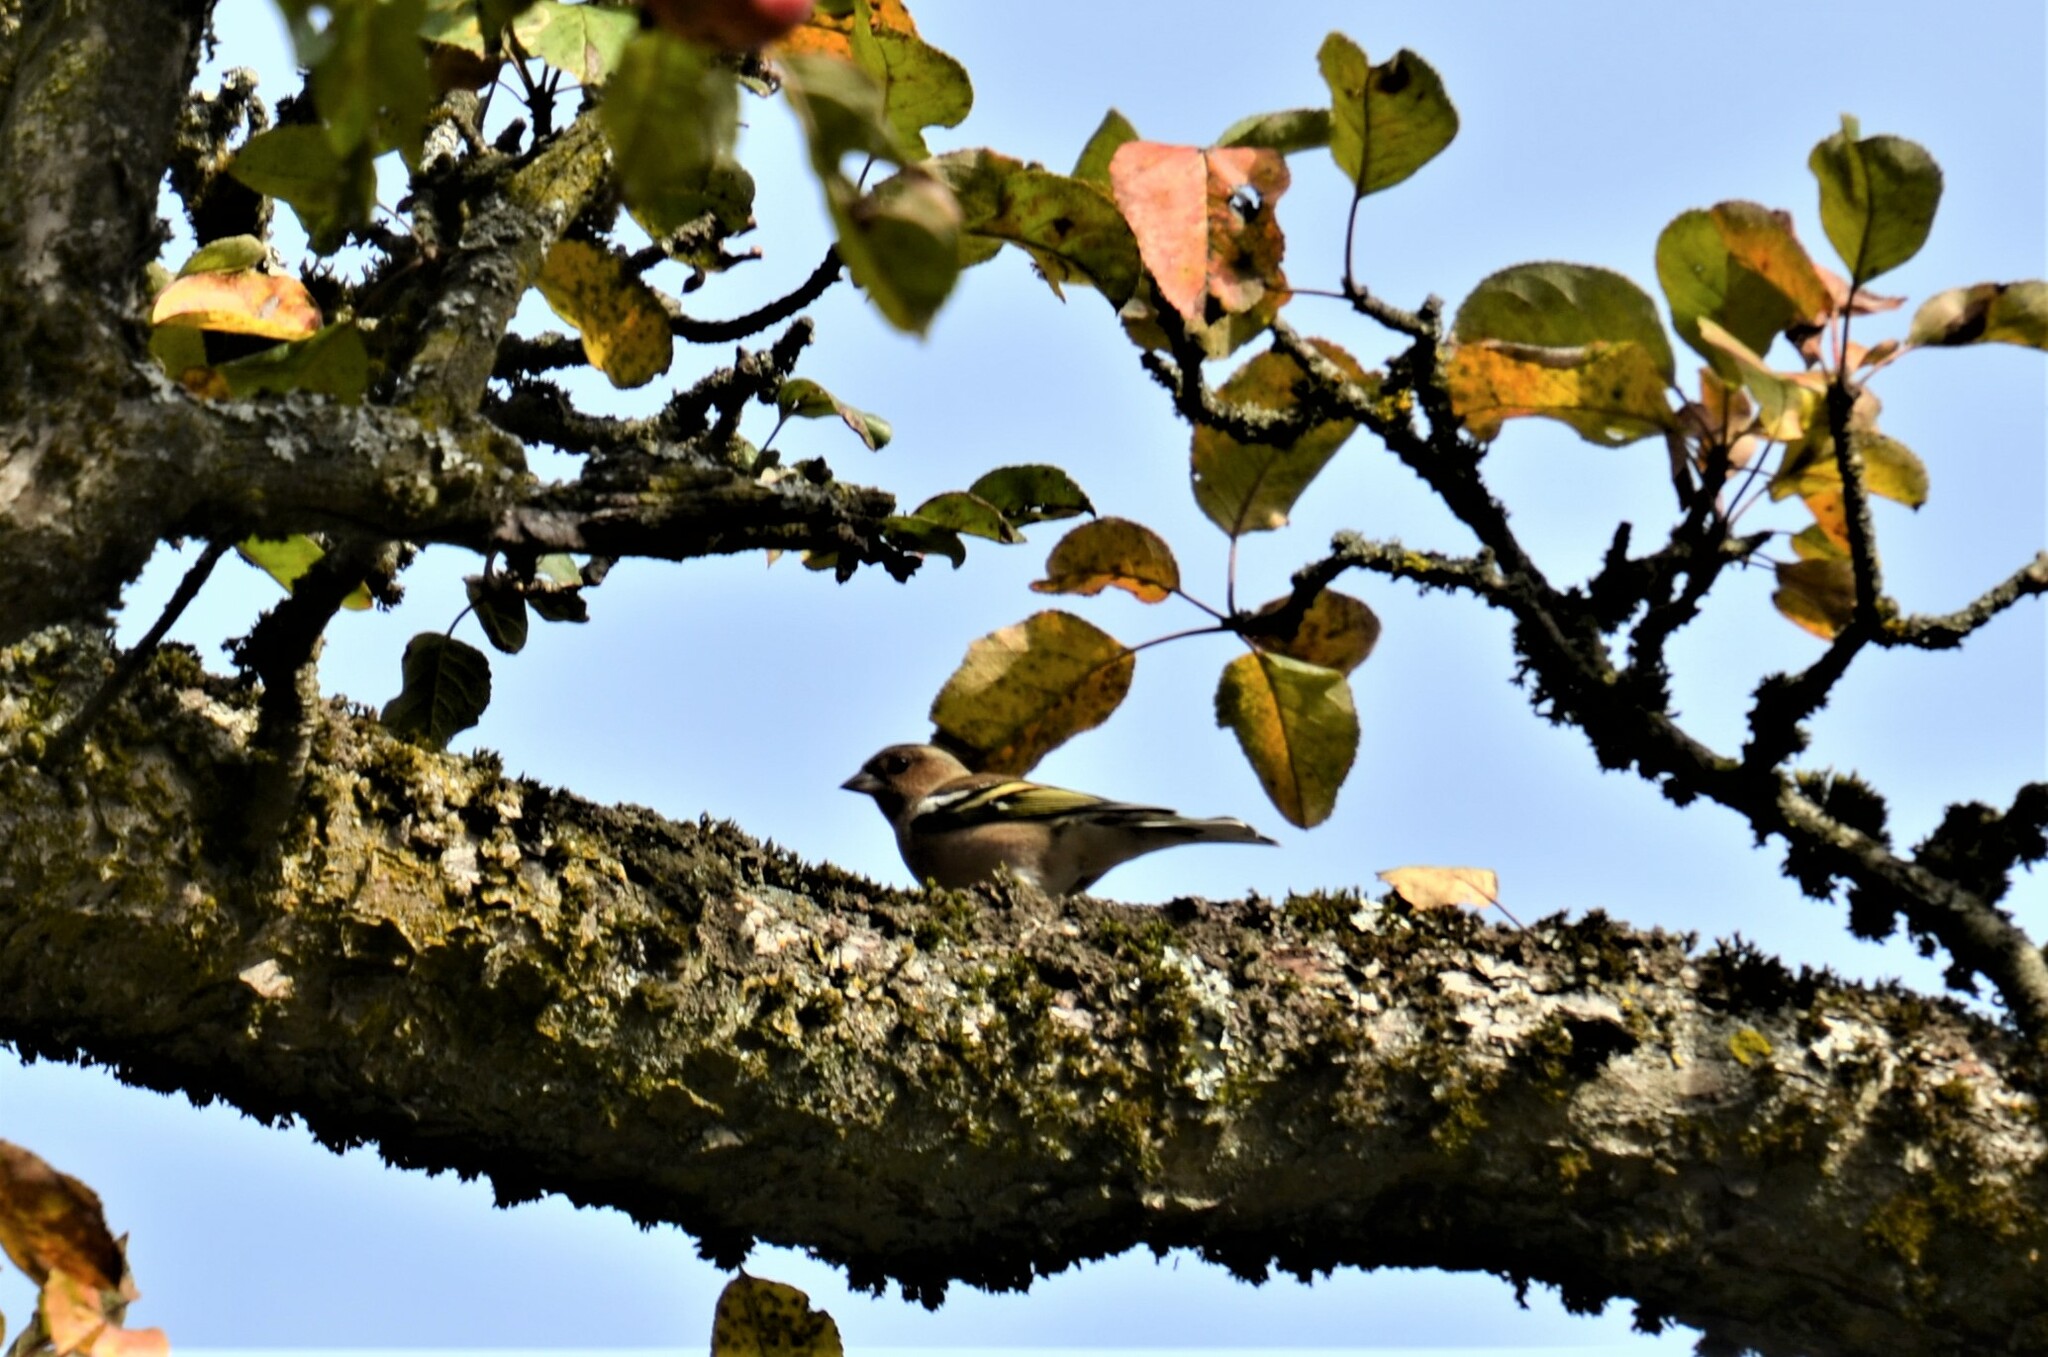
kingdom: Animalia
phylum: Chordata
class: Aves
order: Passeriformes
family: Fringillidae
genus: Fringilla
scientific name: Fringilla coelebs
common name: Common chaffinch
